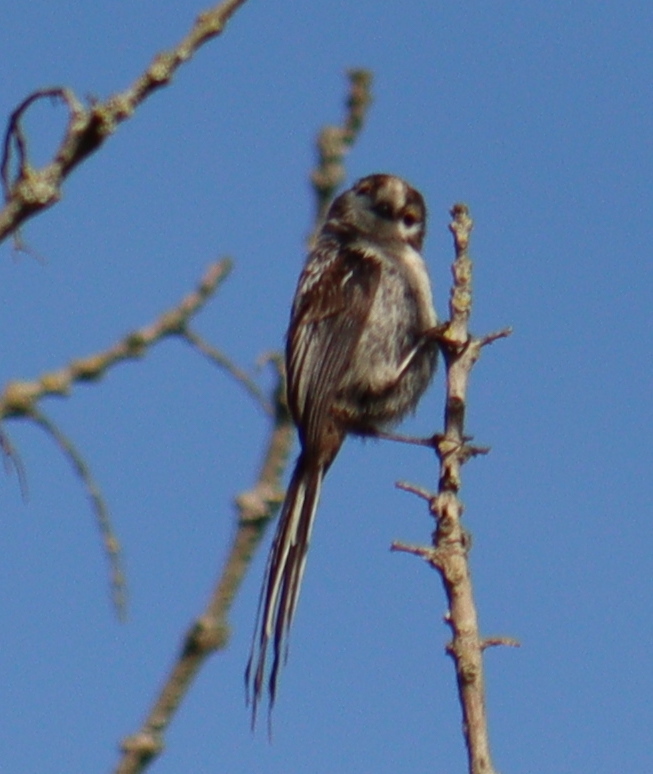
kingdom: Animalia
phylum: Chordata
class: Aves
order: Passeriformes
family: Aegithalidae
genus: Aegithalos
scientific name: Aegithalos caudatus
